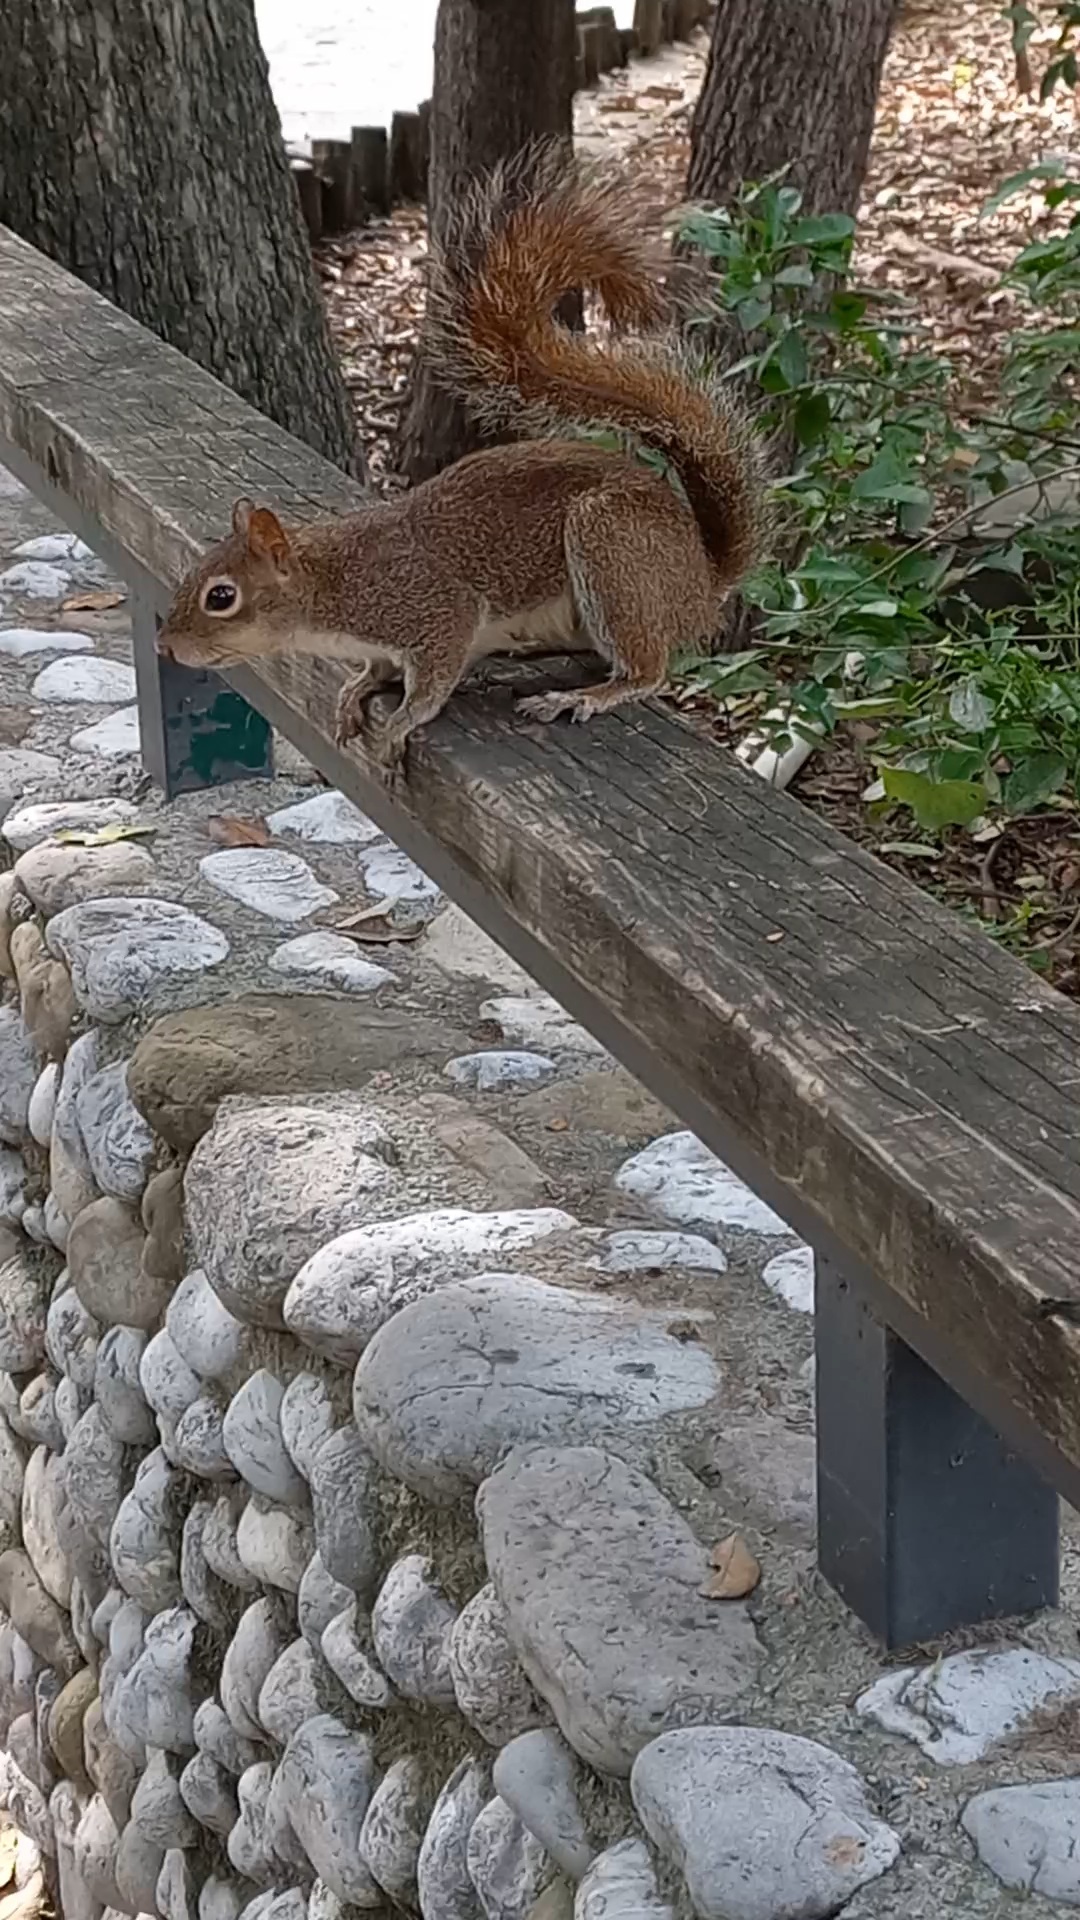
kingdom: Animalia
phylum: Chordata
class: Mammalia
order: Rodentia
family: Sciuridae
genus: Sciurus
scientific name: Sciurus alleni
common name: Allen's squirrel
